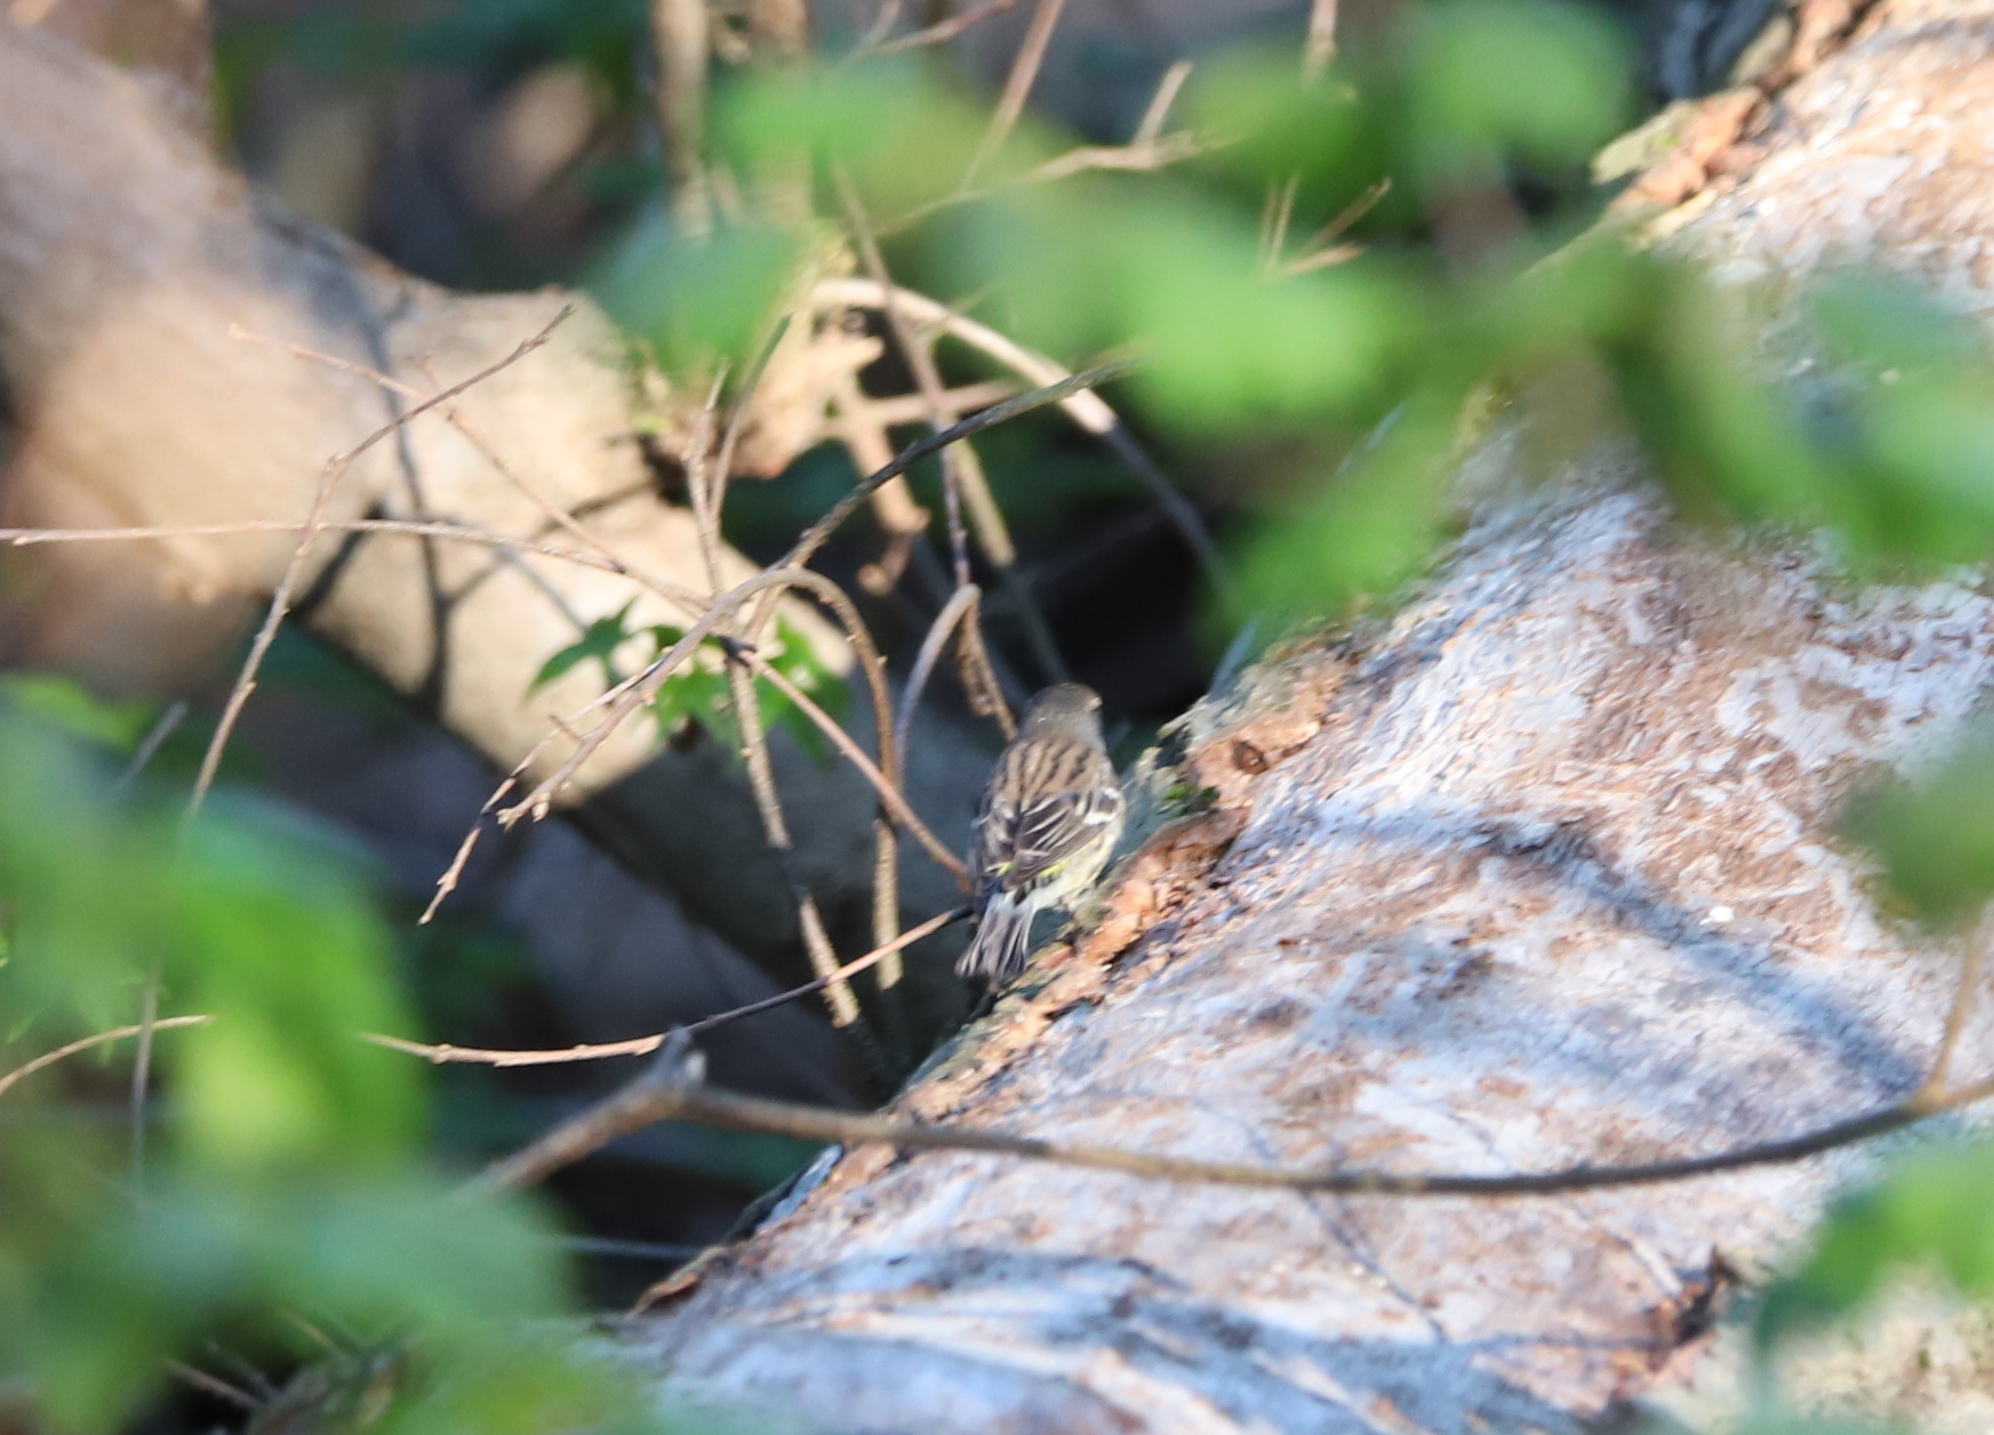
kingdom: Animalia
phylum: Chordata
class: Aves
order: Passeriformes
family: Parulidae
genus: Setophaga
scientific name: Setophaga coronata
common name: Myrtle warbler
